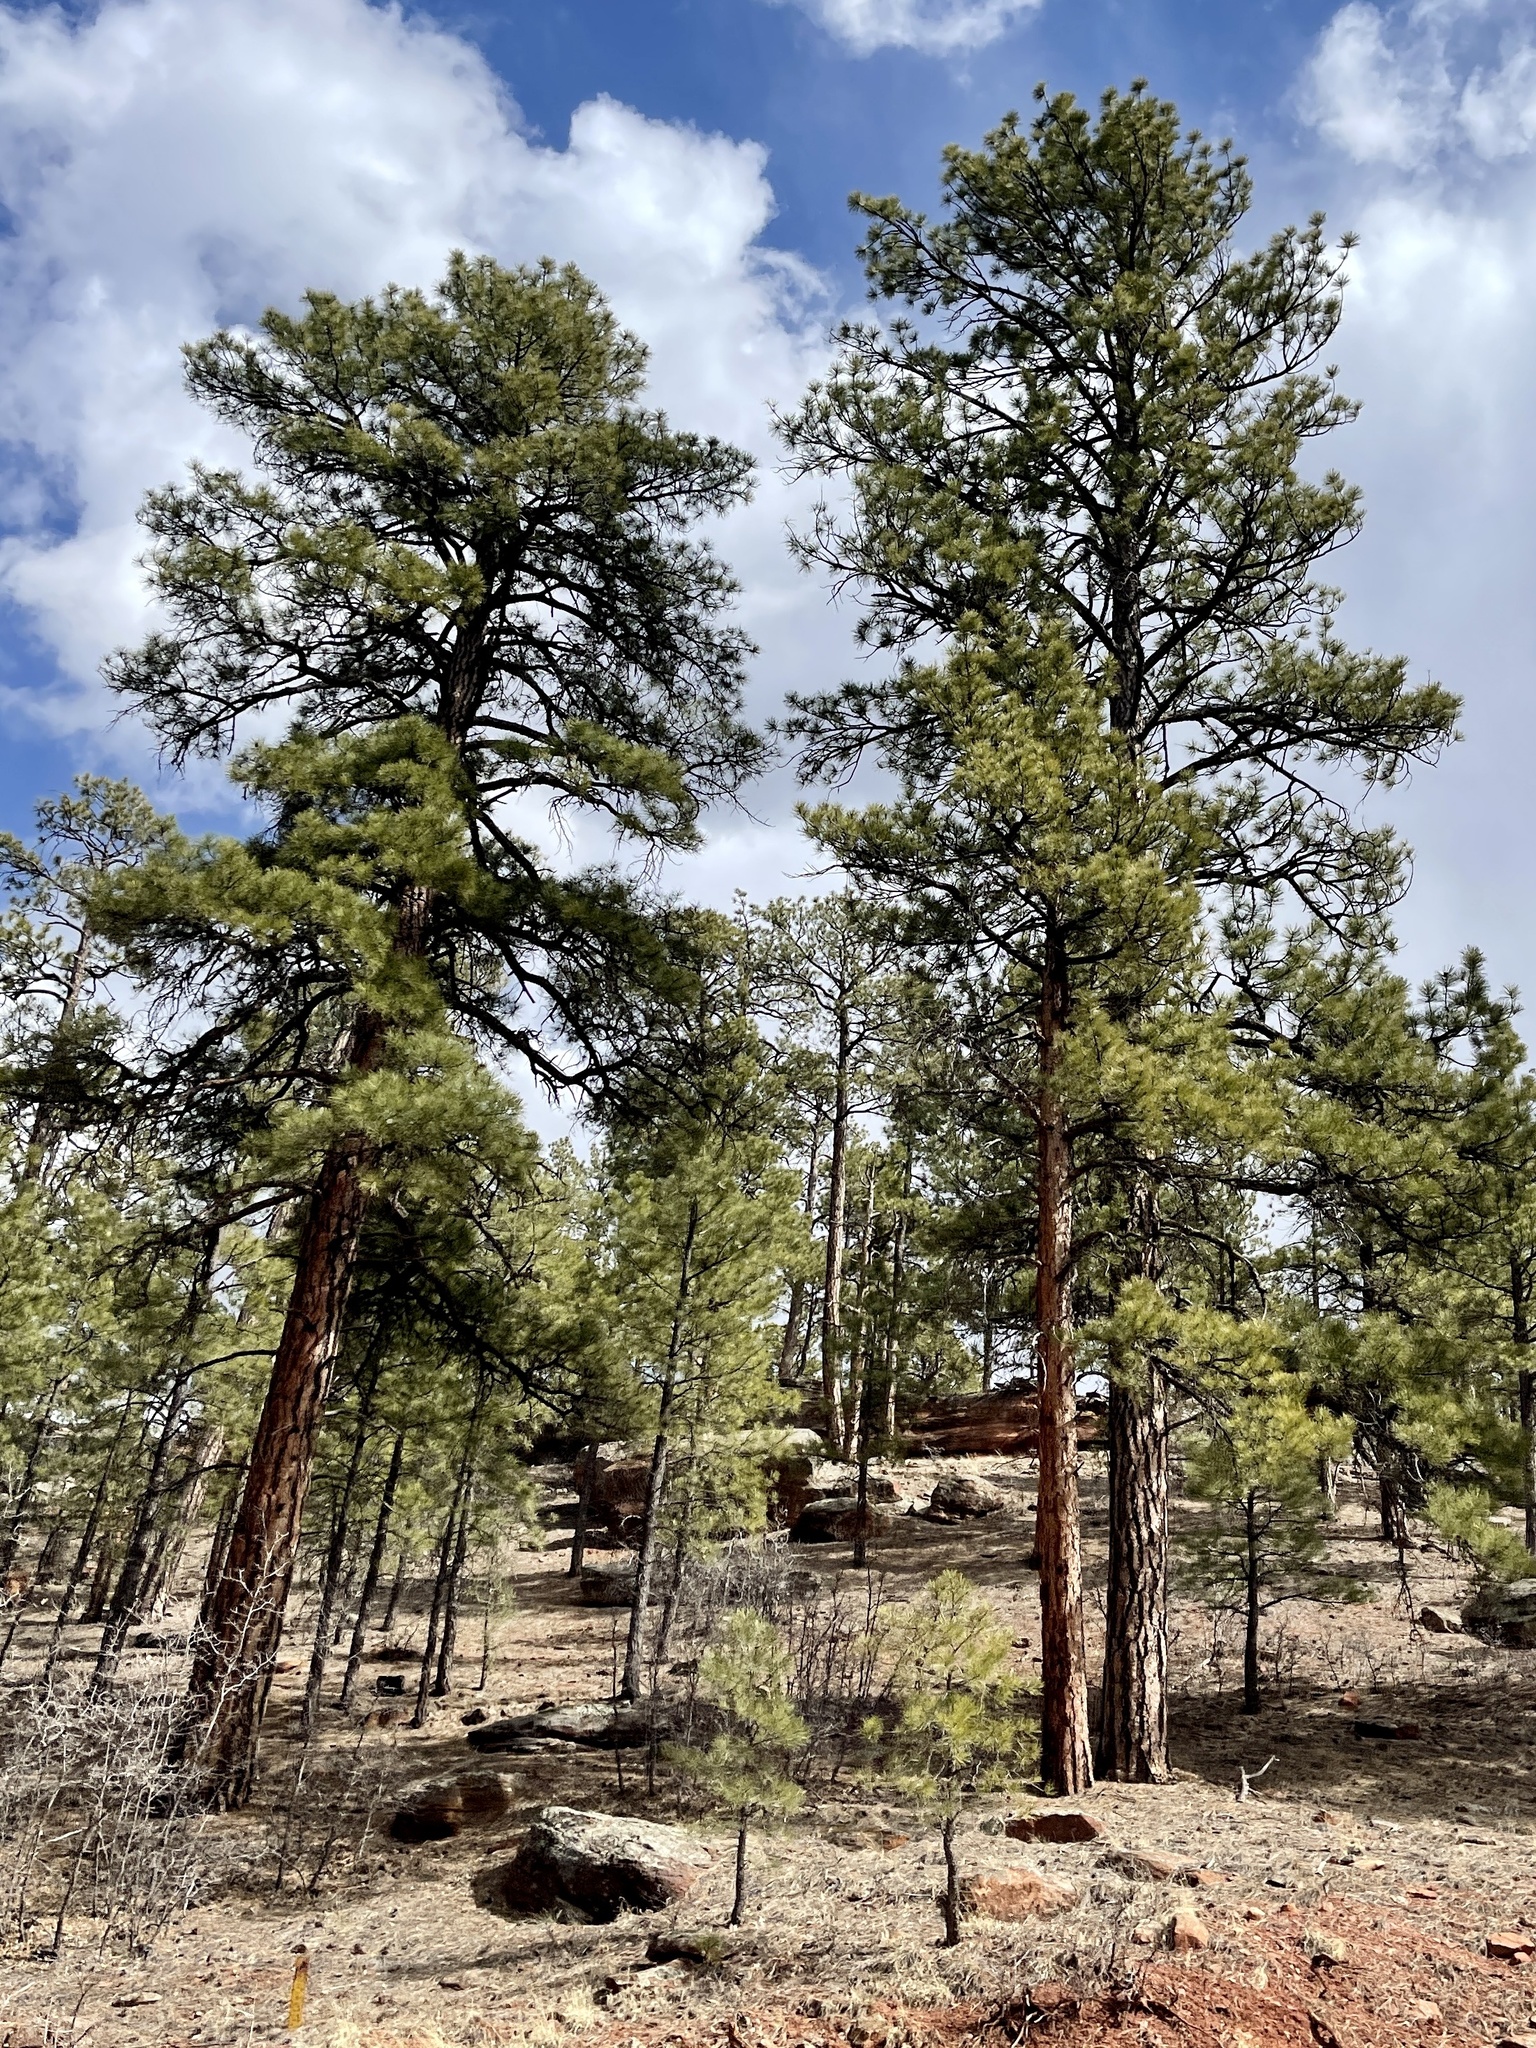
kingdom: Plantae
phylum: Tracheophyta
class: Pinopsida
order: Pinales
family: Pinaceae
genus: Pinus
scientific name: Pinus ponderosa
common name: Western yellow-pine
